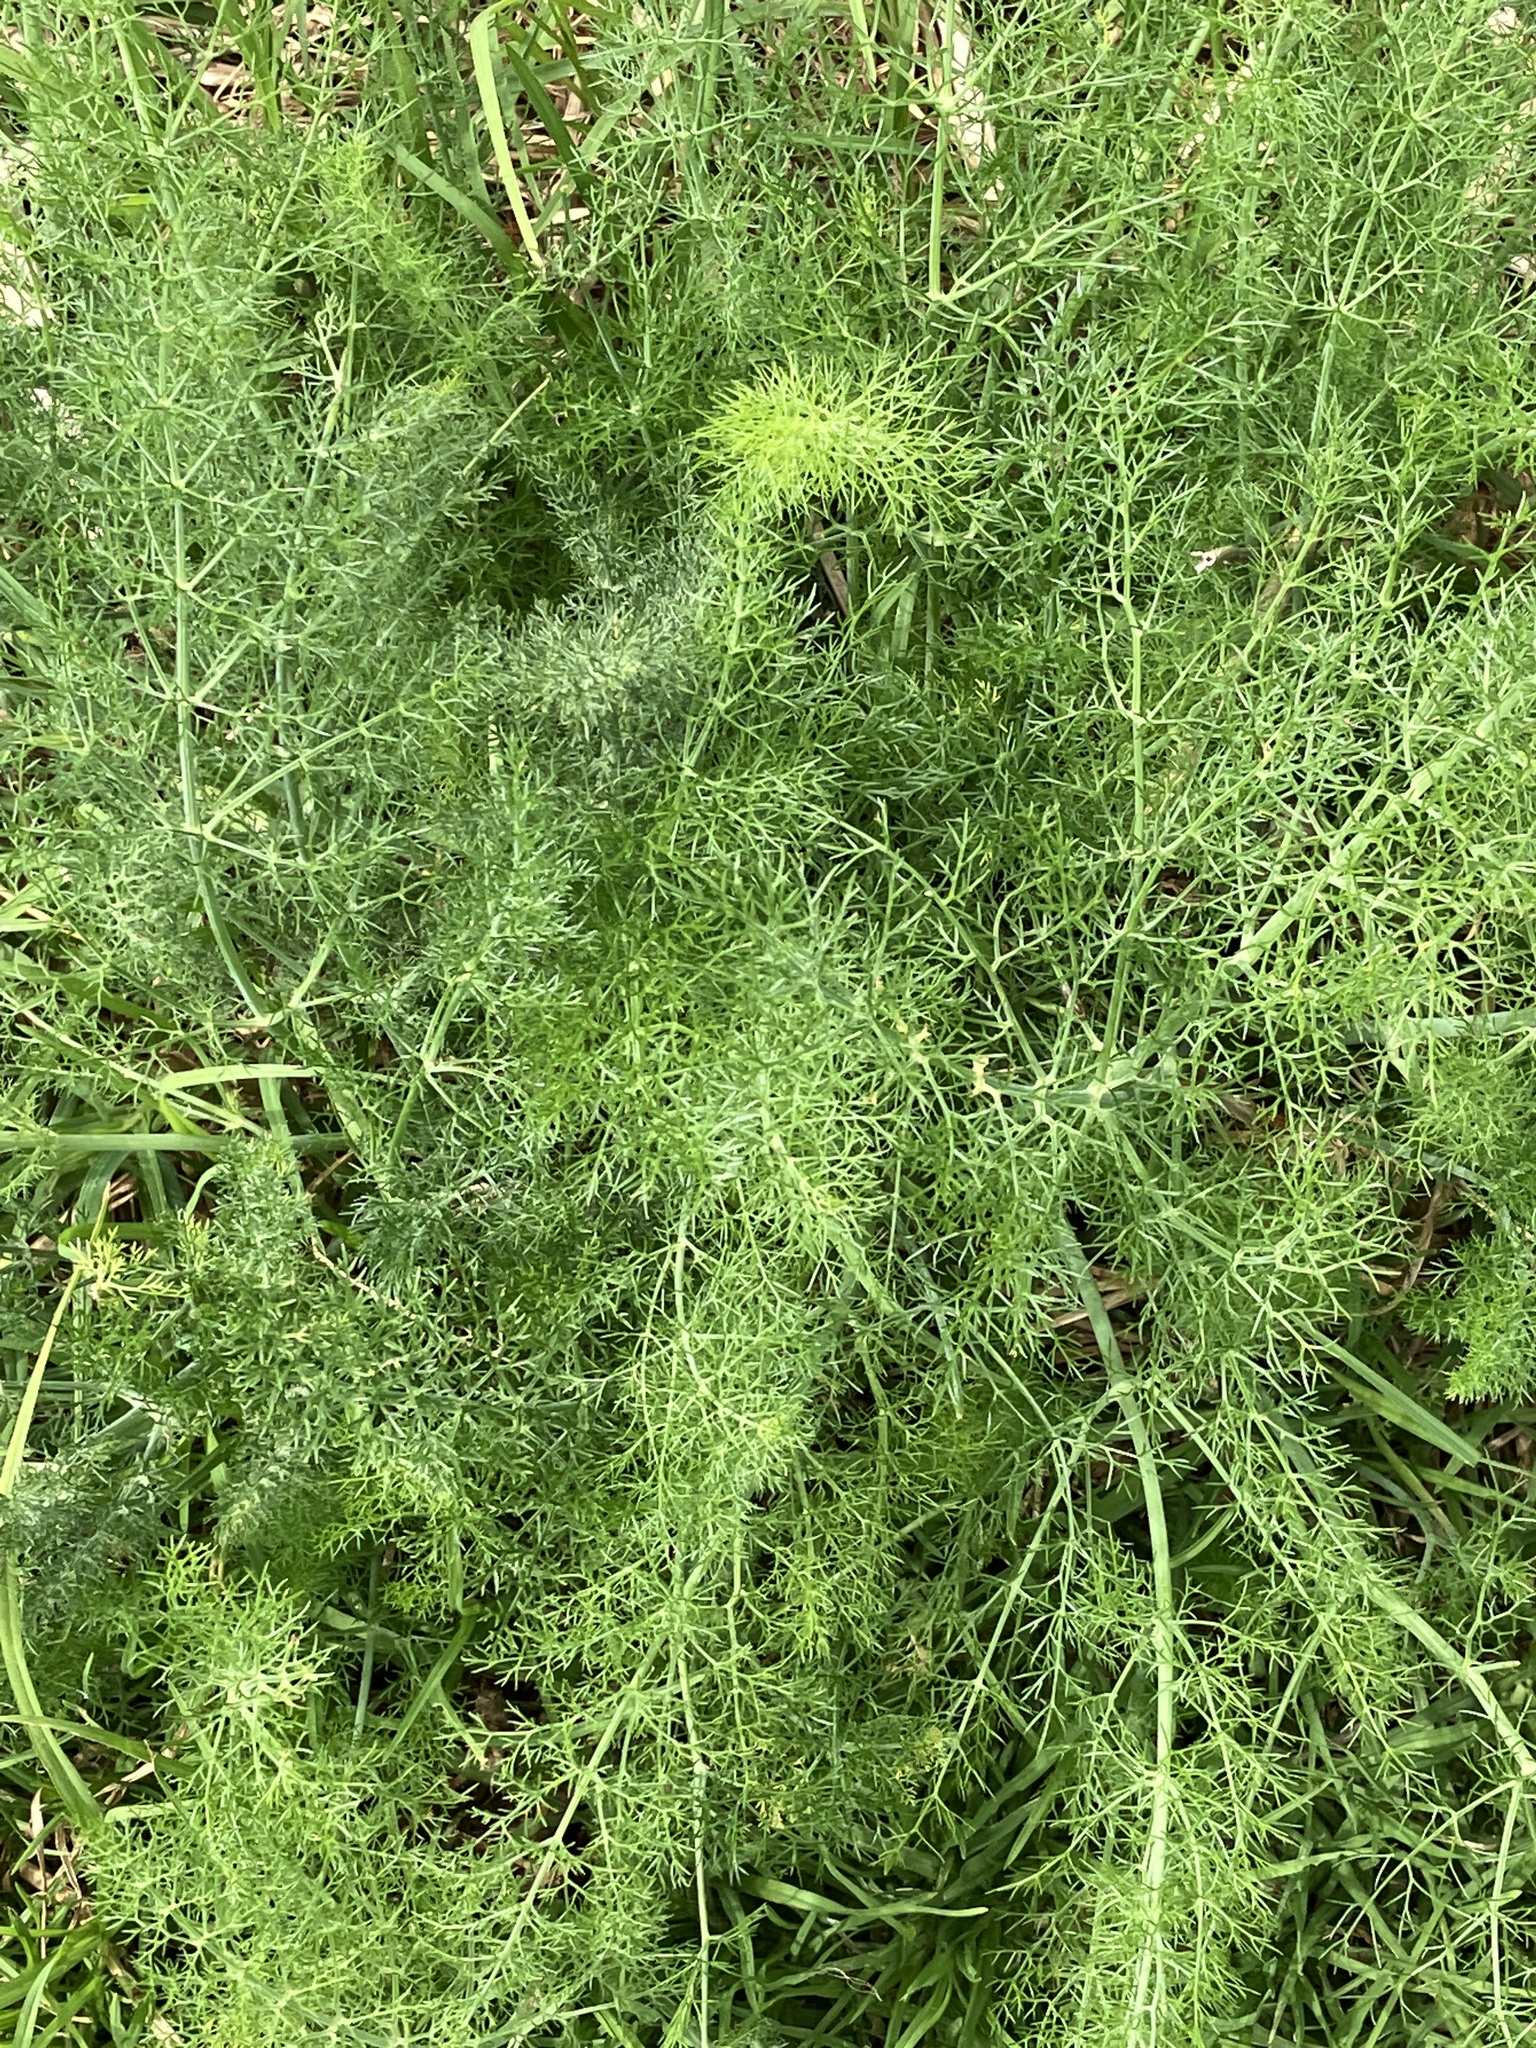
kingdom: Plantae
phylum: Tracheophyta
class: Magnoliopsida
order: Apiales
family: Apiaceae
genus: Foeniculum
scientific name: Foeniculum vulgare
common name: Fennel
